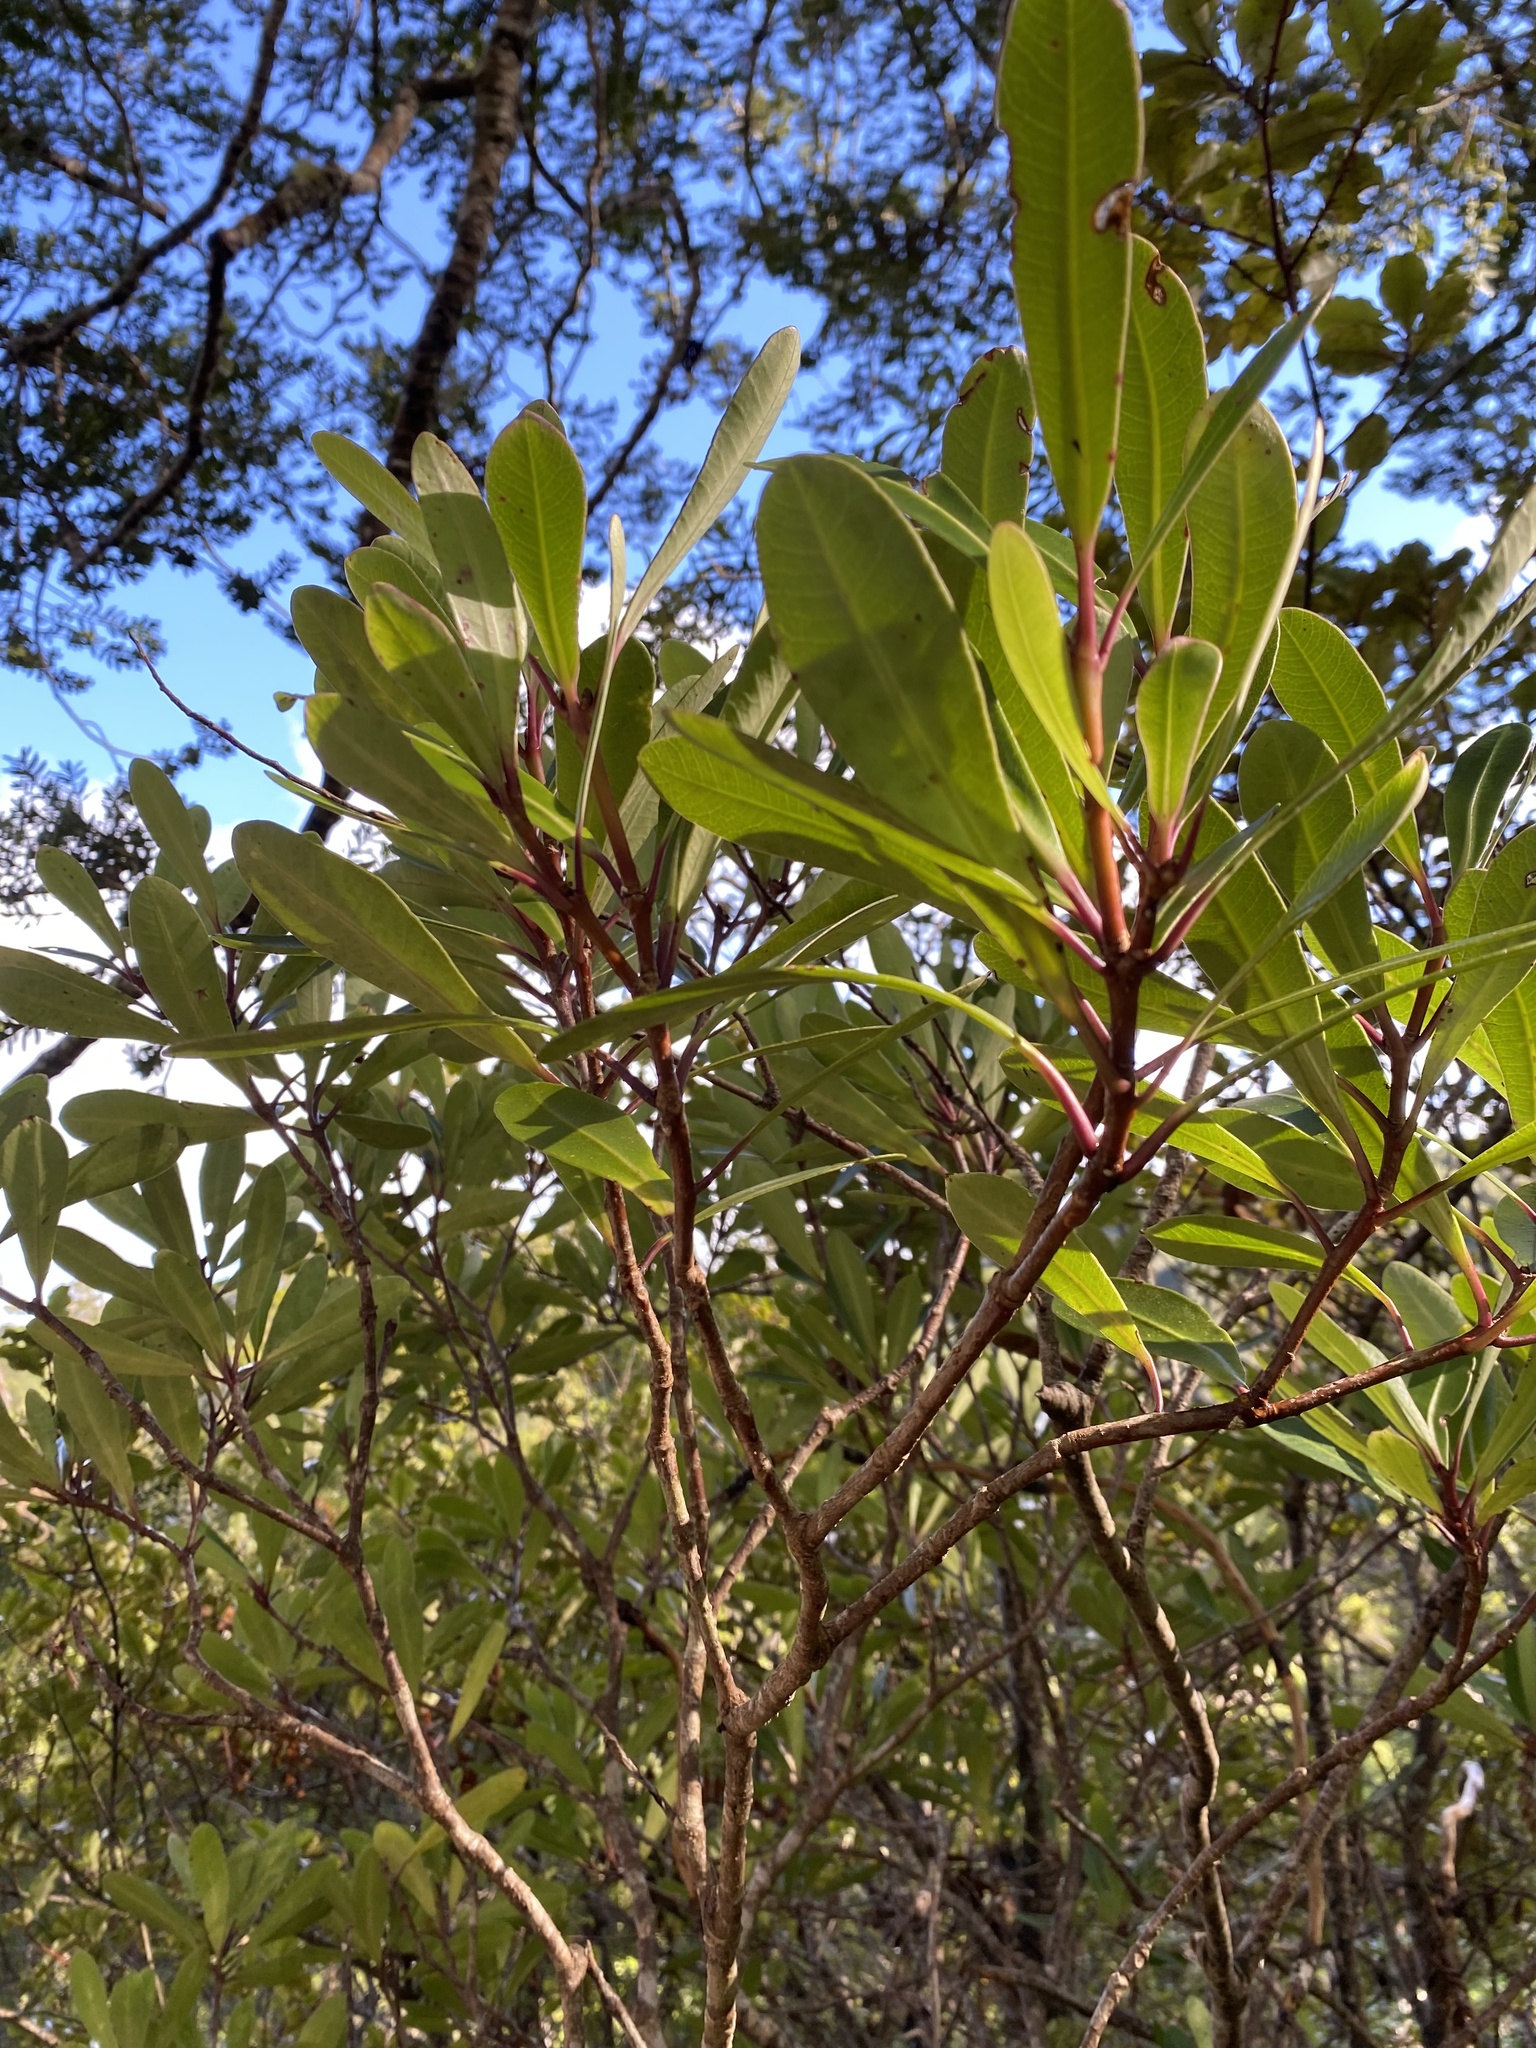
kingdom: Plantae
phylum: Tracheophyta
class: Magnoliopsida
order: Apiales
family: Pittosporaceae
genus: Pittosporum
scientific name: Pittosporum kirkii
